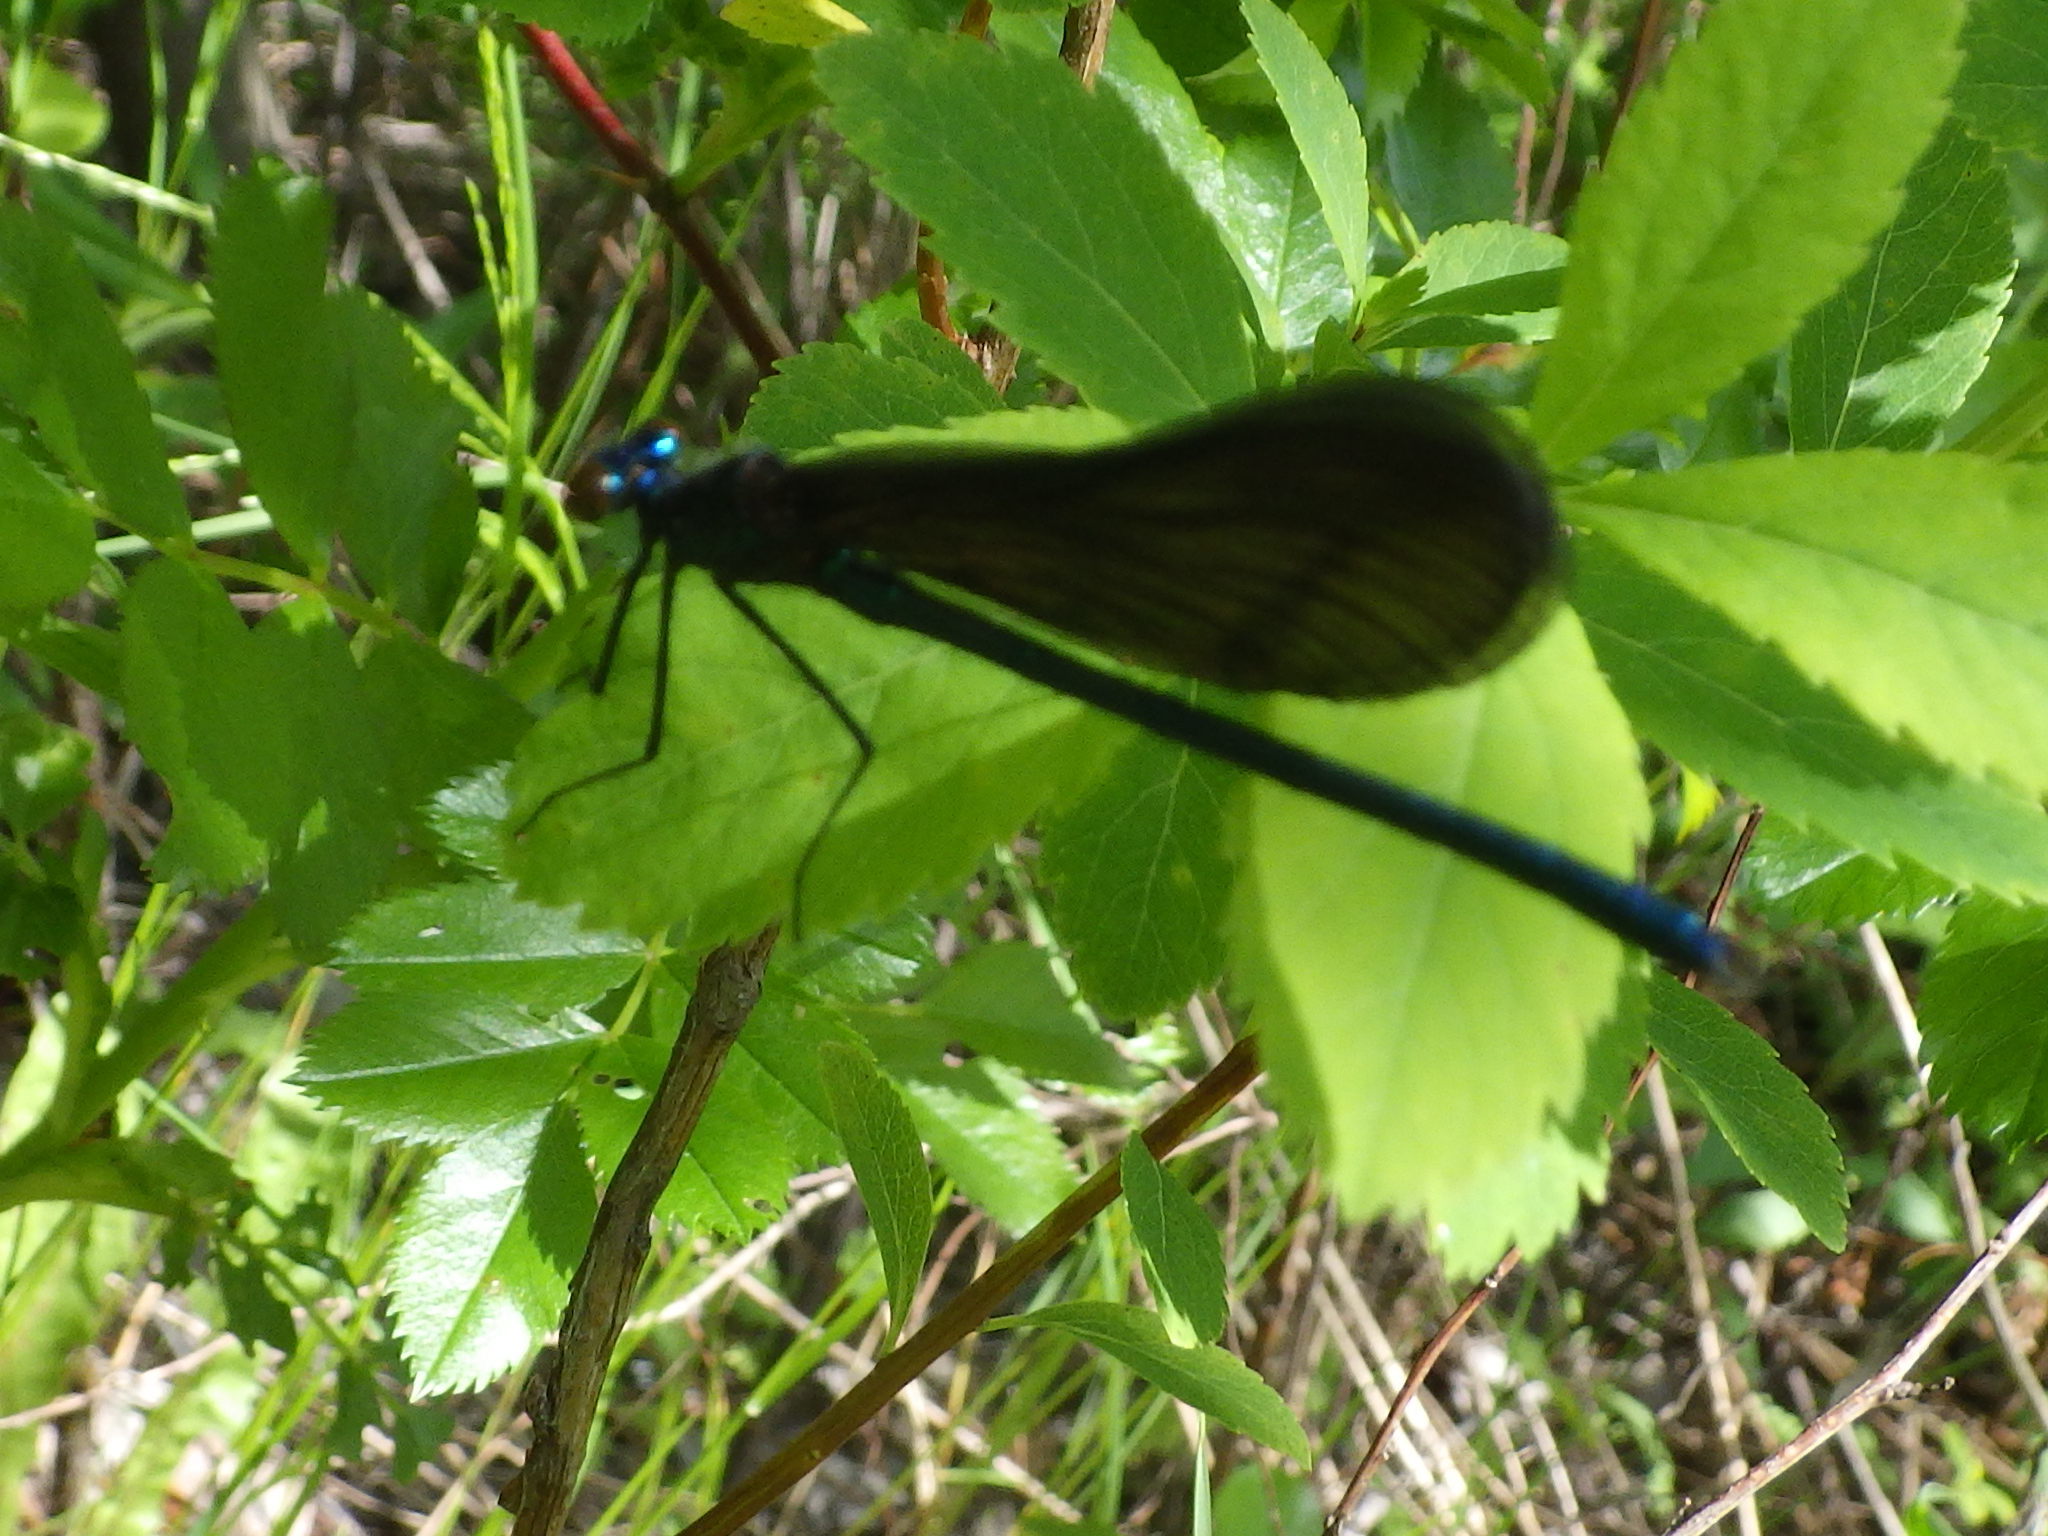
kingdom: Animalia
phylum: Arthropoda
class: Insecta
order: Odonata
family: Calopterygidae
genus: Calopteryx
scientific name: Calopteryx maculata
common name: Ebony jewelwing
